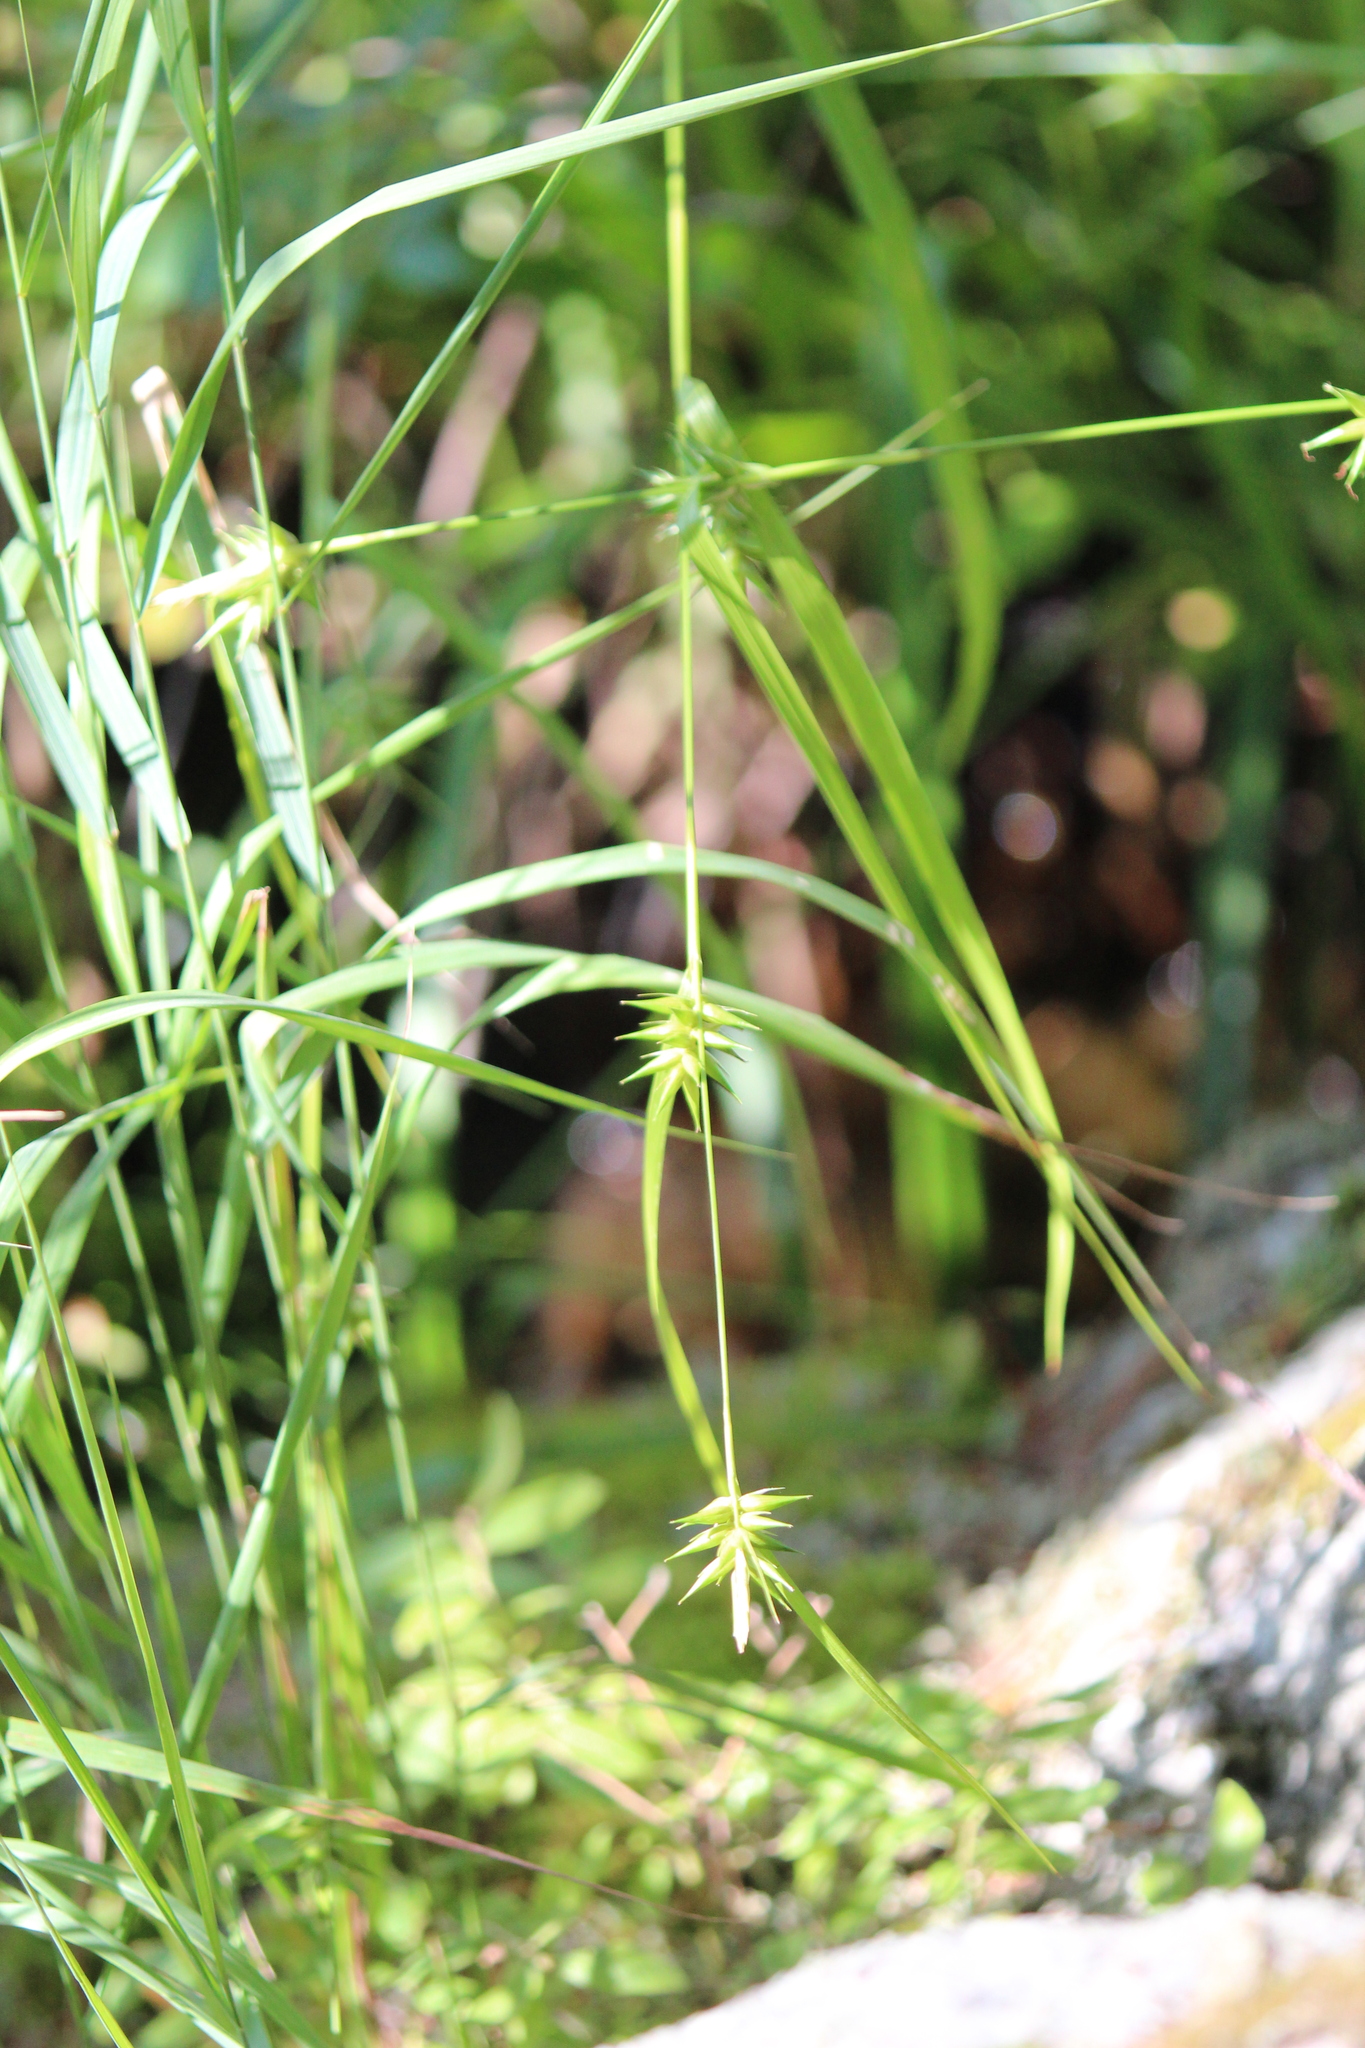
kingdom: Plantae
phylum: Tracheophyta
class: Liliopsida
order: Poales
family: Cyperaceae
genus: Carex
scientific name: Carex folliculata
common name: Northern long sedge
